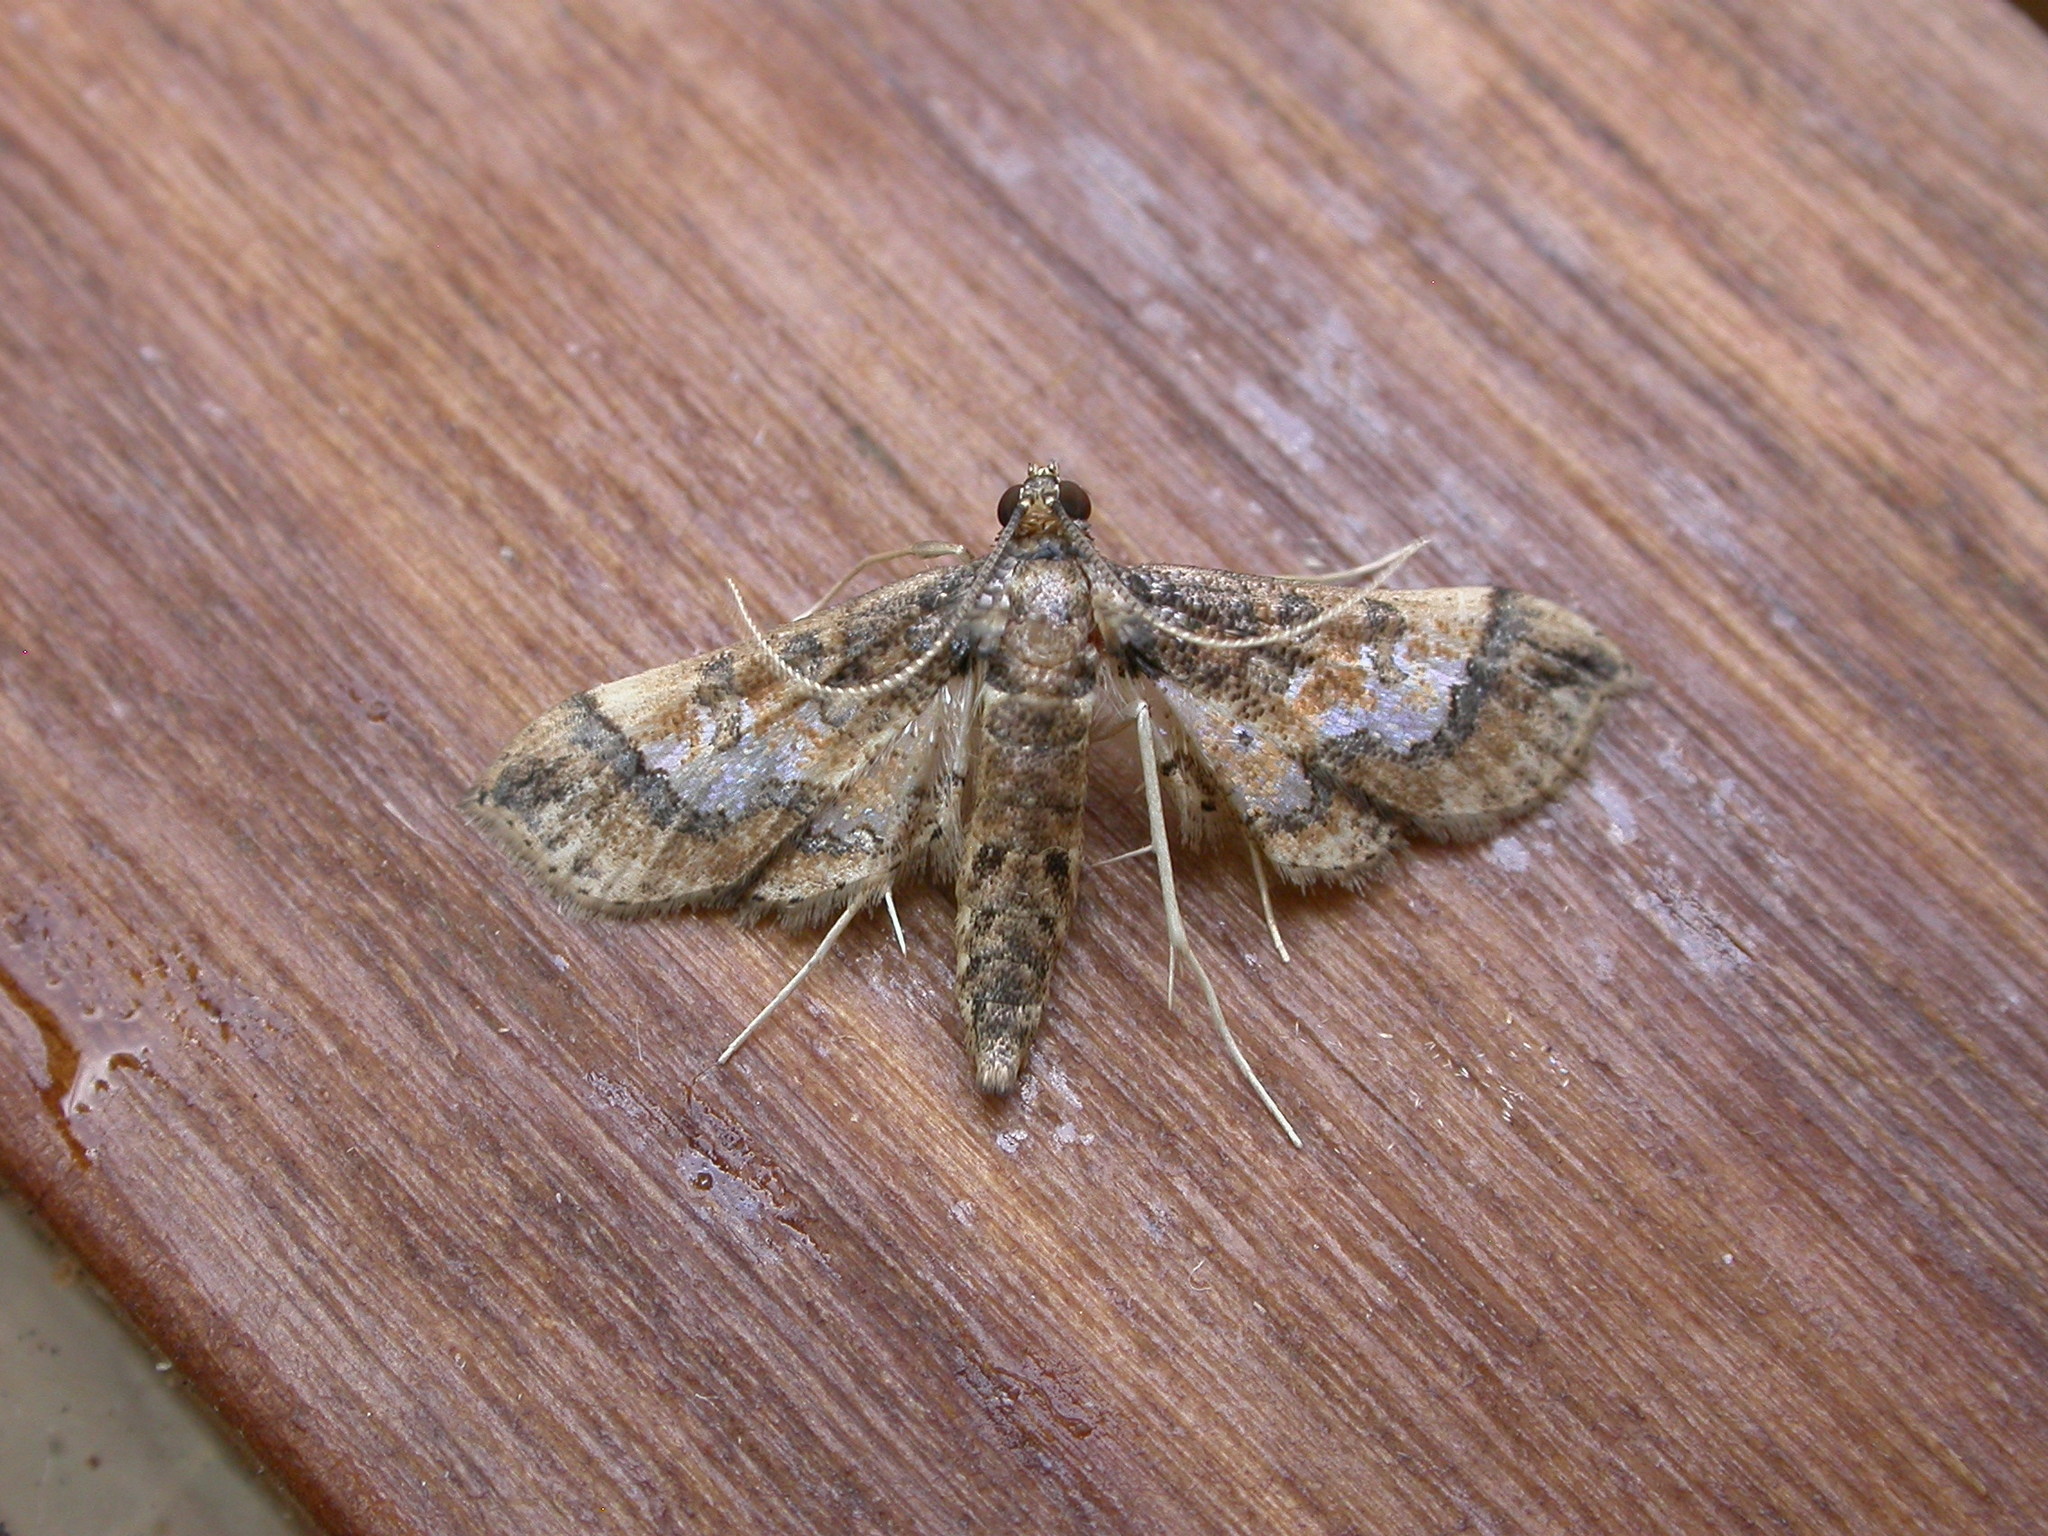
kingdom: Animalia
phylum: Arthropoda
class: Insecta
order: Lepidoptera
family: Crambidae
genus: Hydriris
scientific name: Hydriris ornatalis
